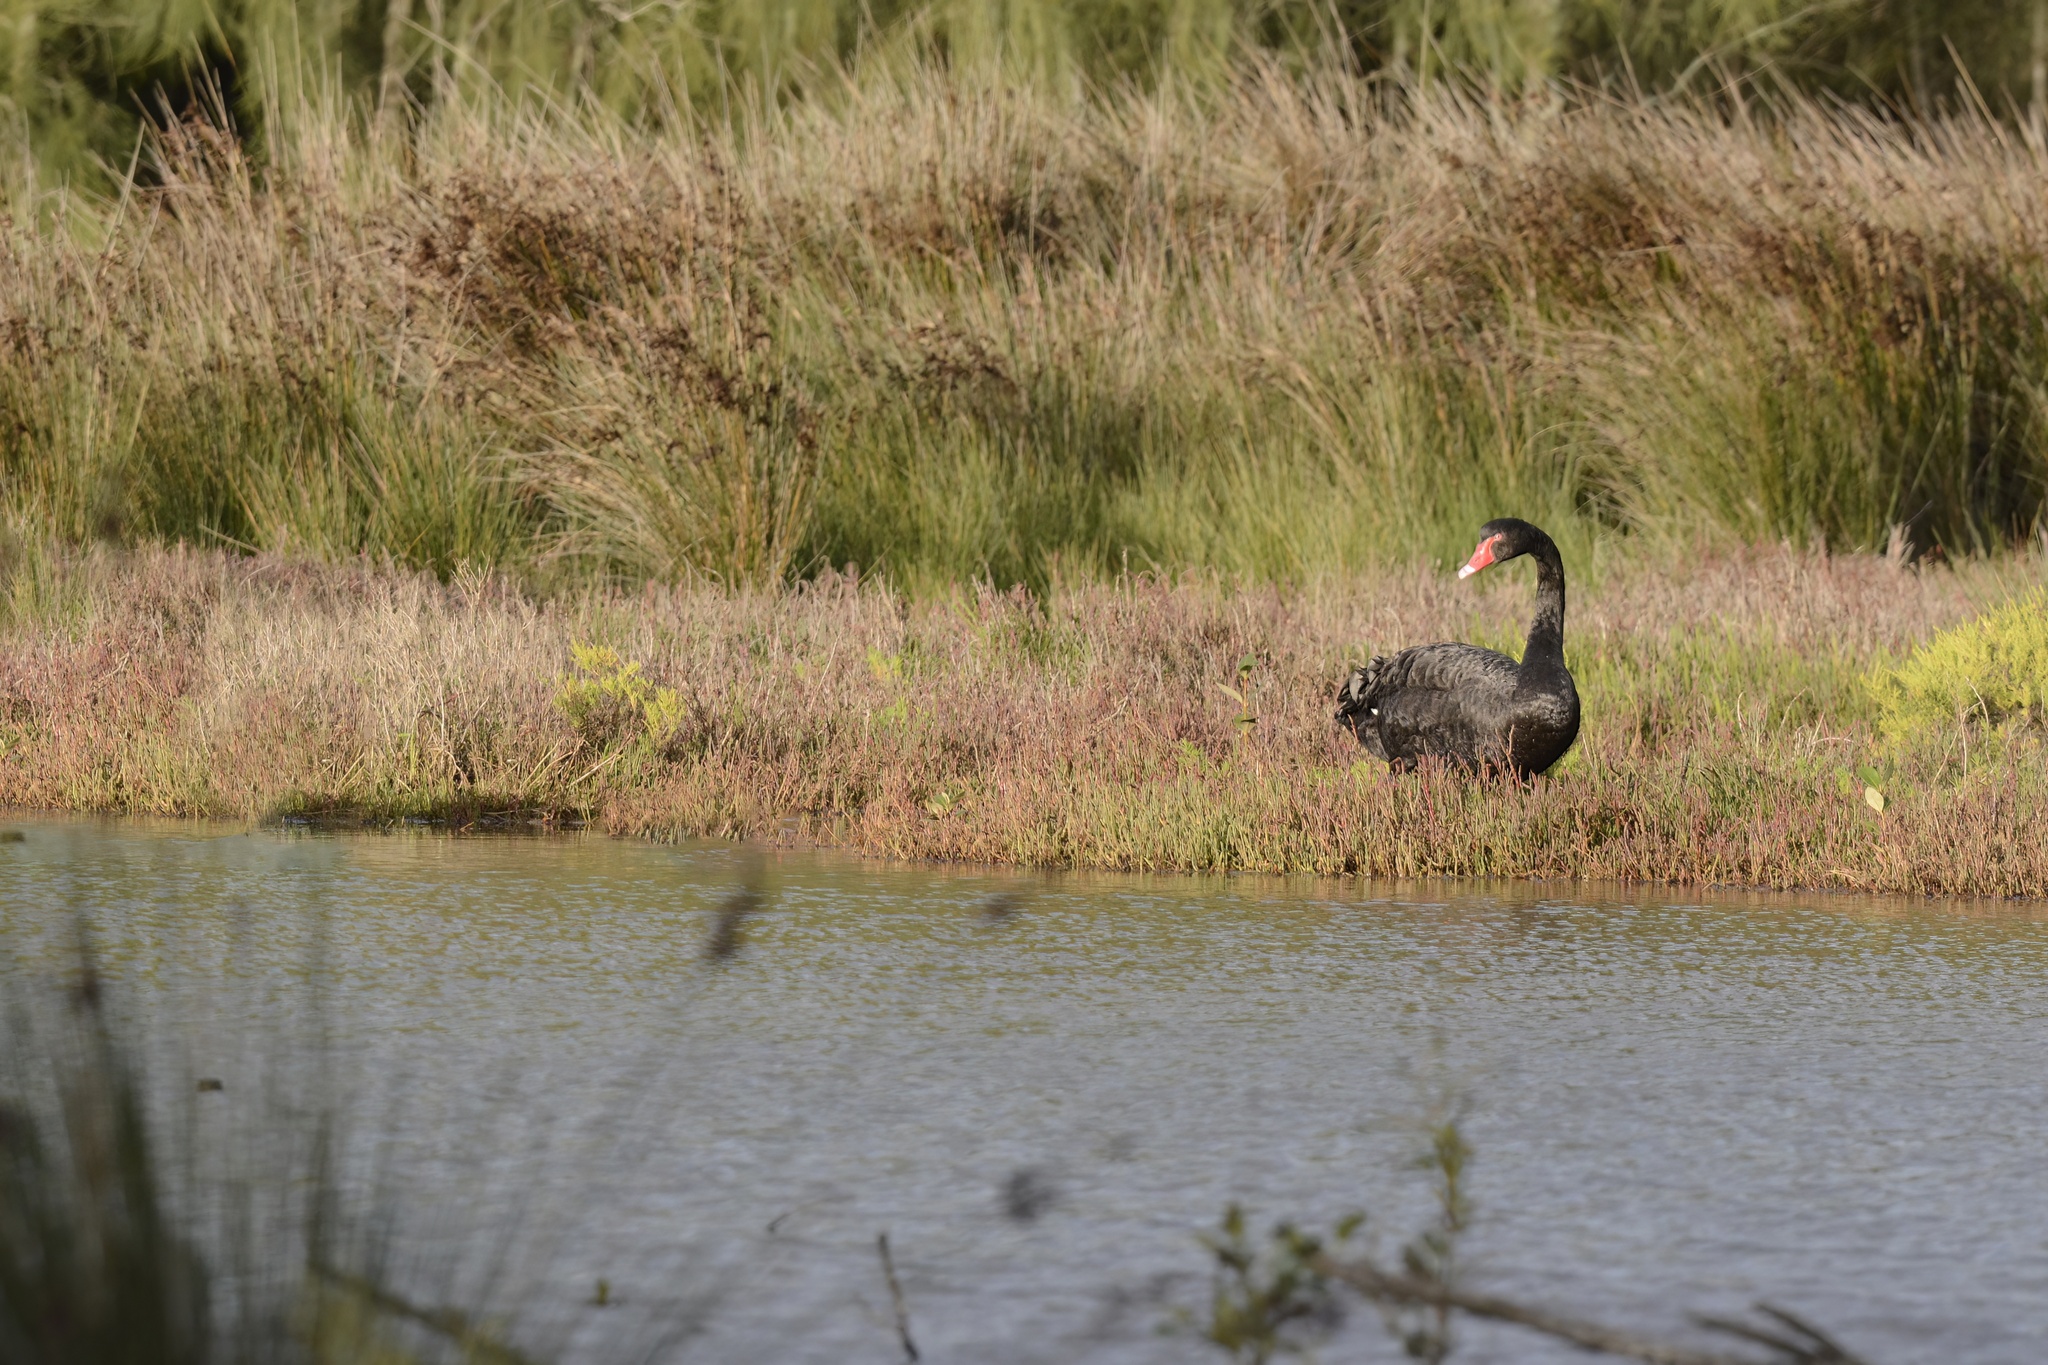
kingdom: Animalia
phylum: Chordata
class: Aves
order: Anseriformes
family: Anatidae
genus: Cygnus
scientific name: Cygnus atratus
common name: Black swan
